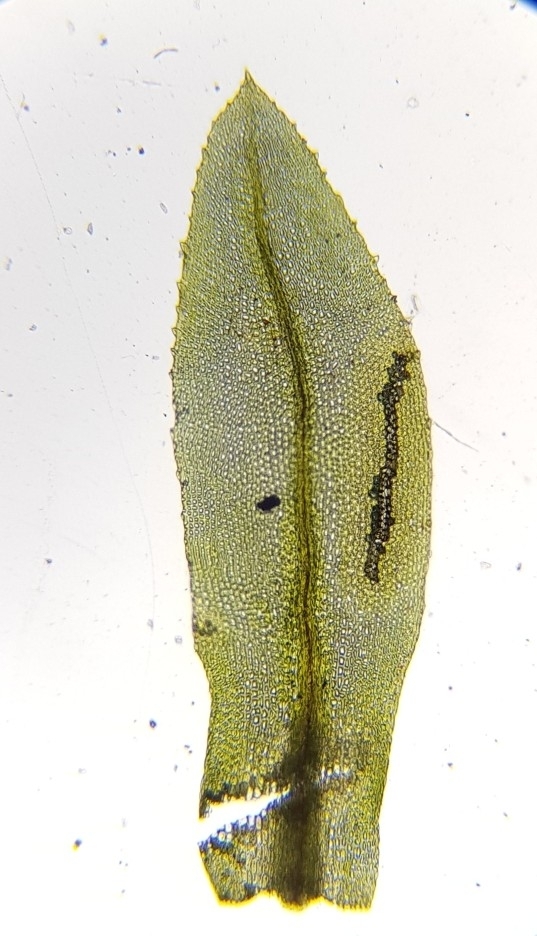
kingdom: Plantae
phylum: Bryophyta
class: Bryopsida
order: Bryales
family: Mniaceae
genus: Mnium
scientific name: Mnium stellare
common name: Star leafy moss
